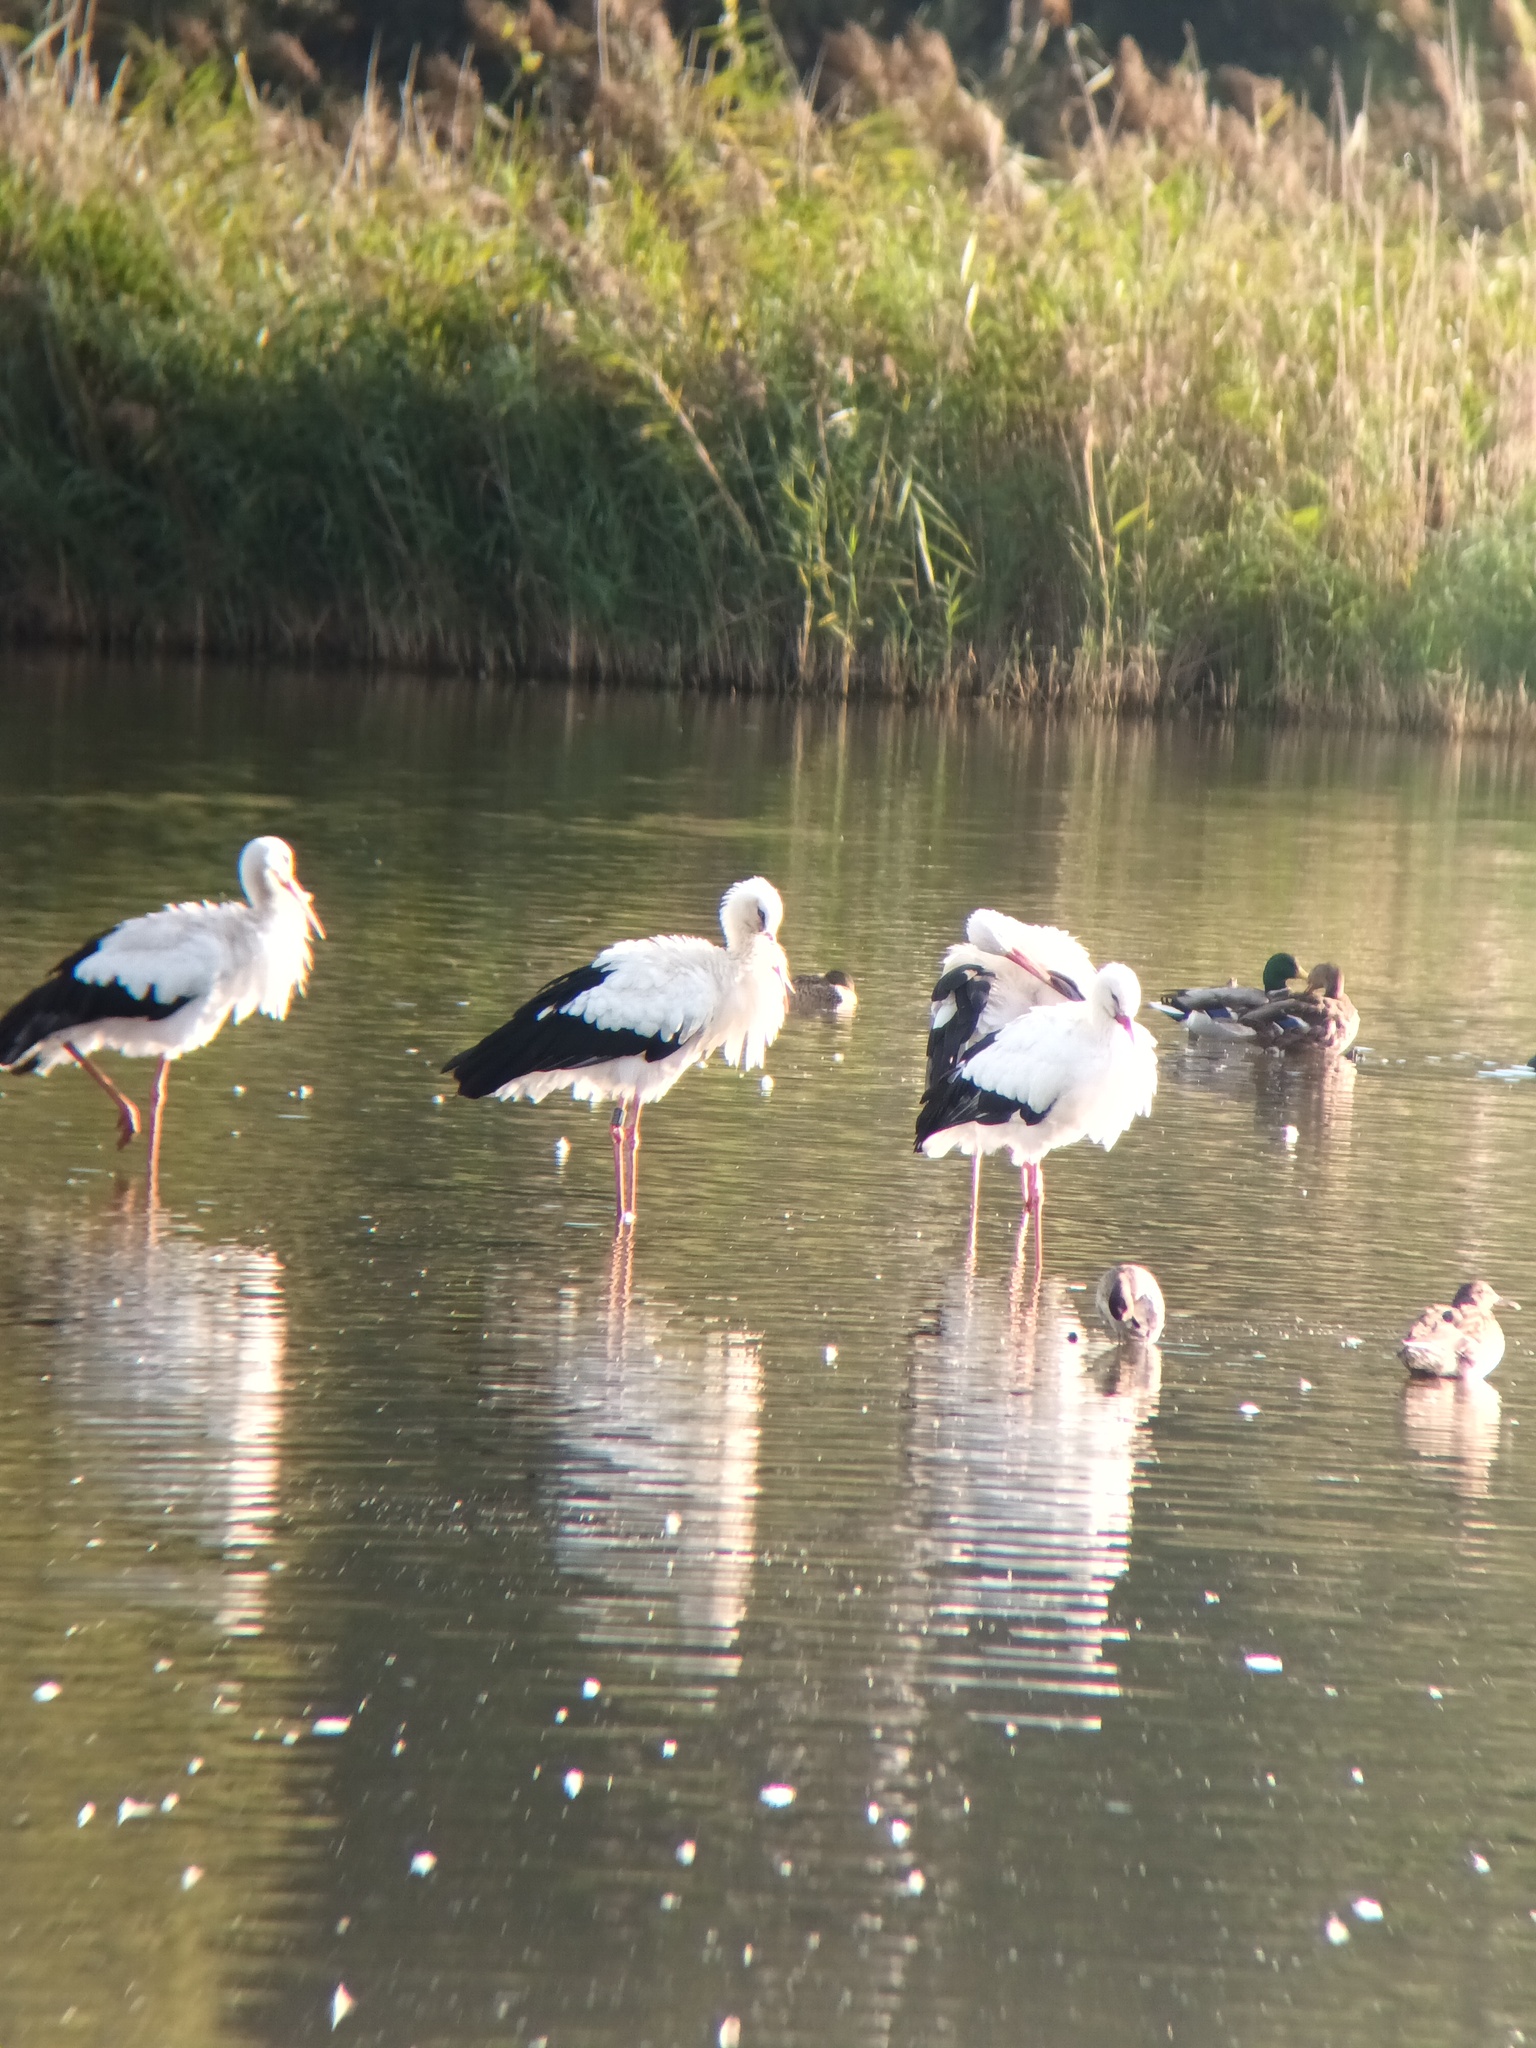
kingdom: Animalia
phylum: Chordata
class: Aves
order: Ciconiiformes
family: Ciconiidae
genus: Ciconia
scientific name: Ciconia ciconia
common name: White stork
